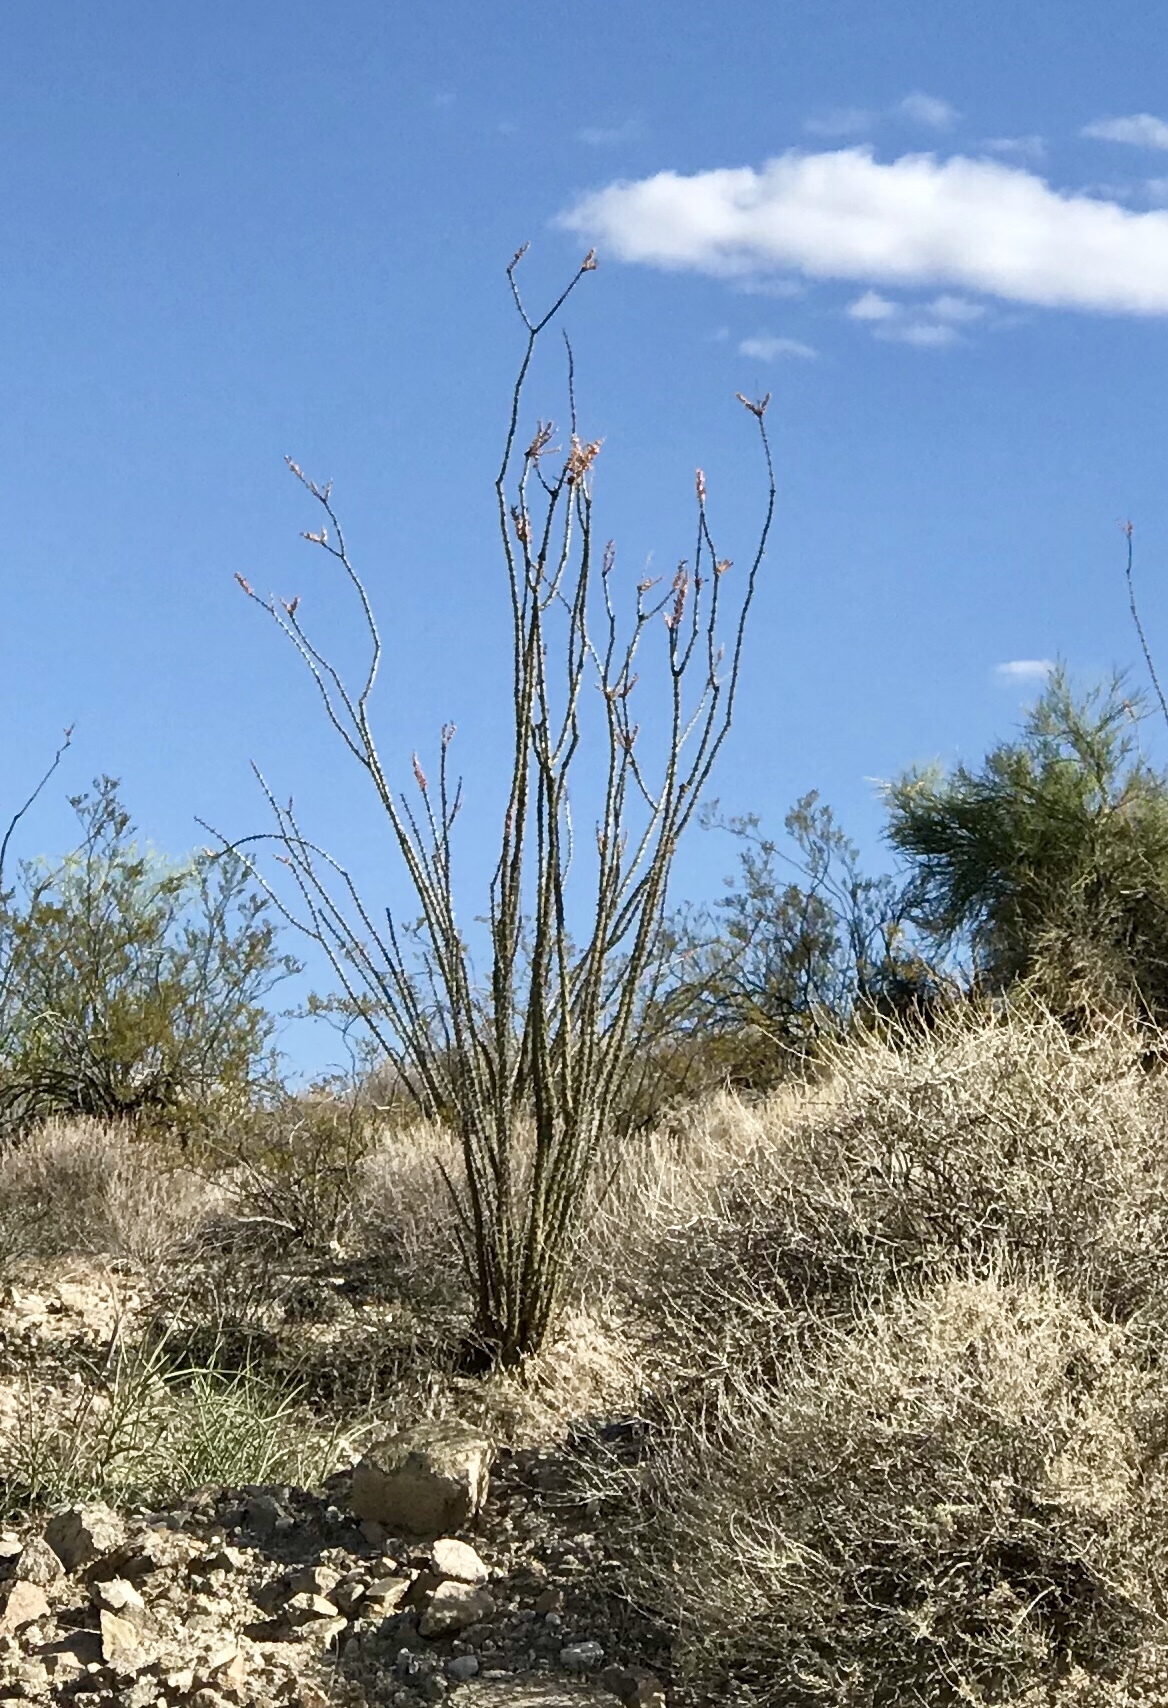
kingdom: Plantae
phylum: Tracheophyta
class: Magnoliopsida
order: Ericales
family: Fouquieriaceae
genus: Fouquieria
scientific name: Fouquieria splendens
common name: Vine-cactus
